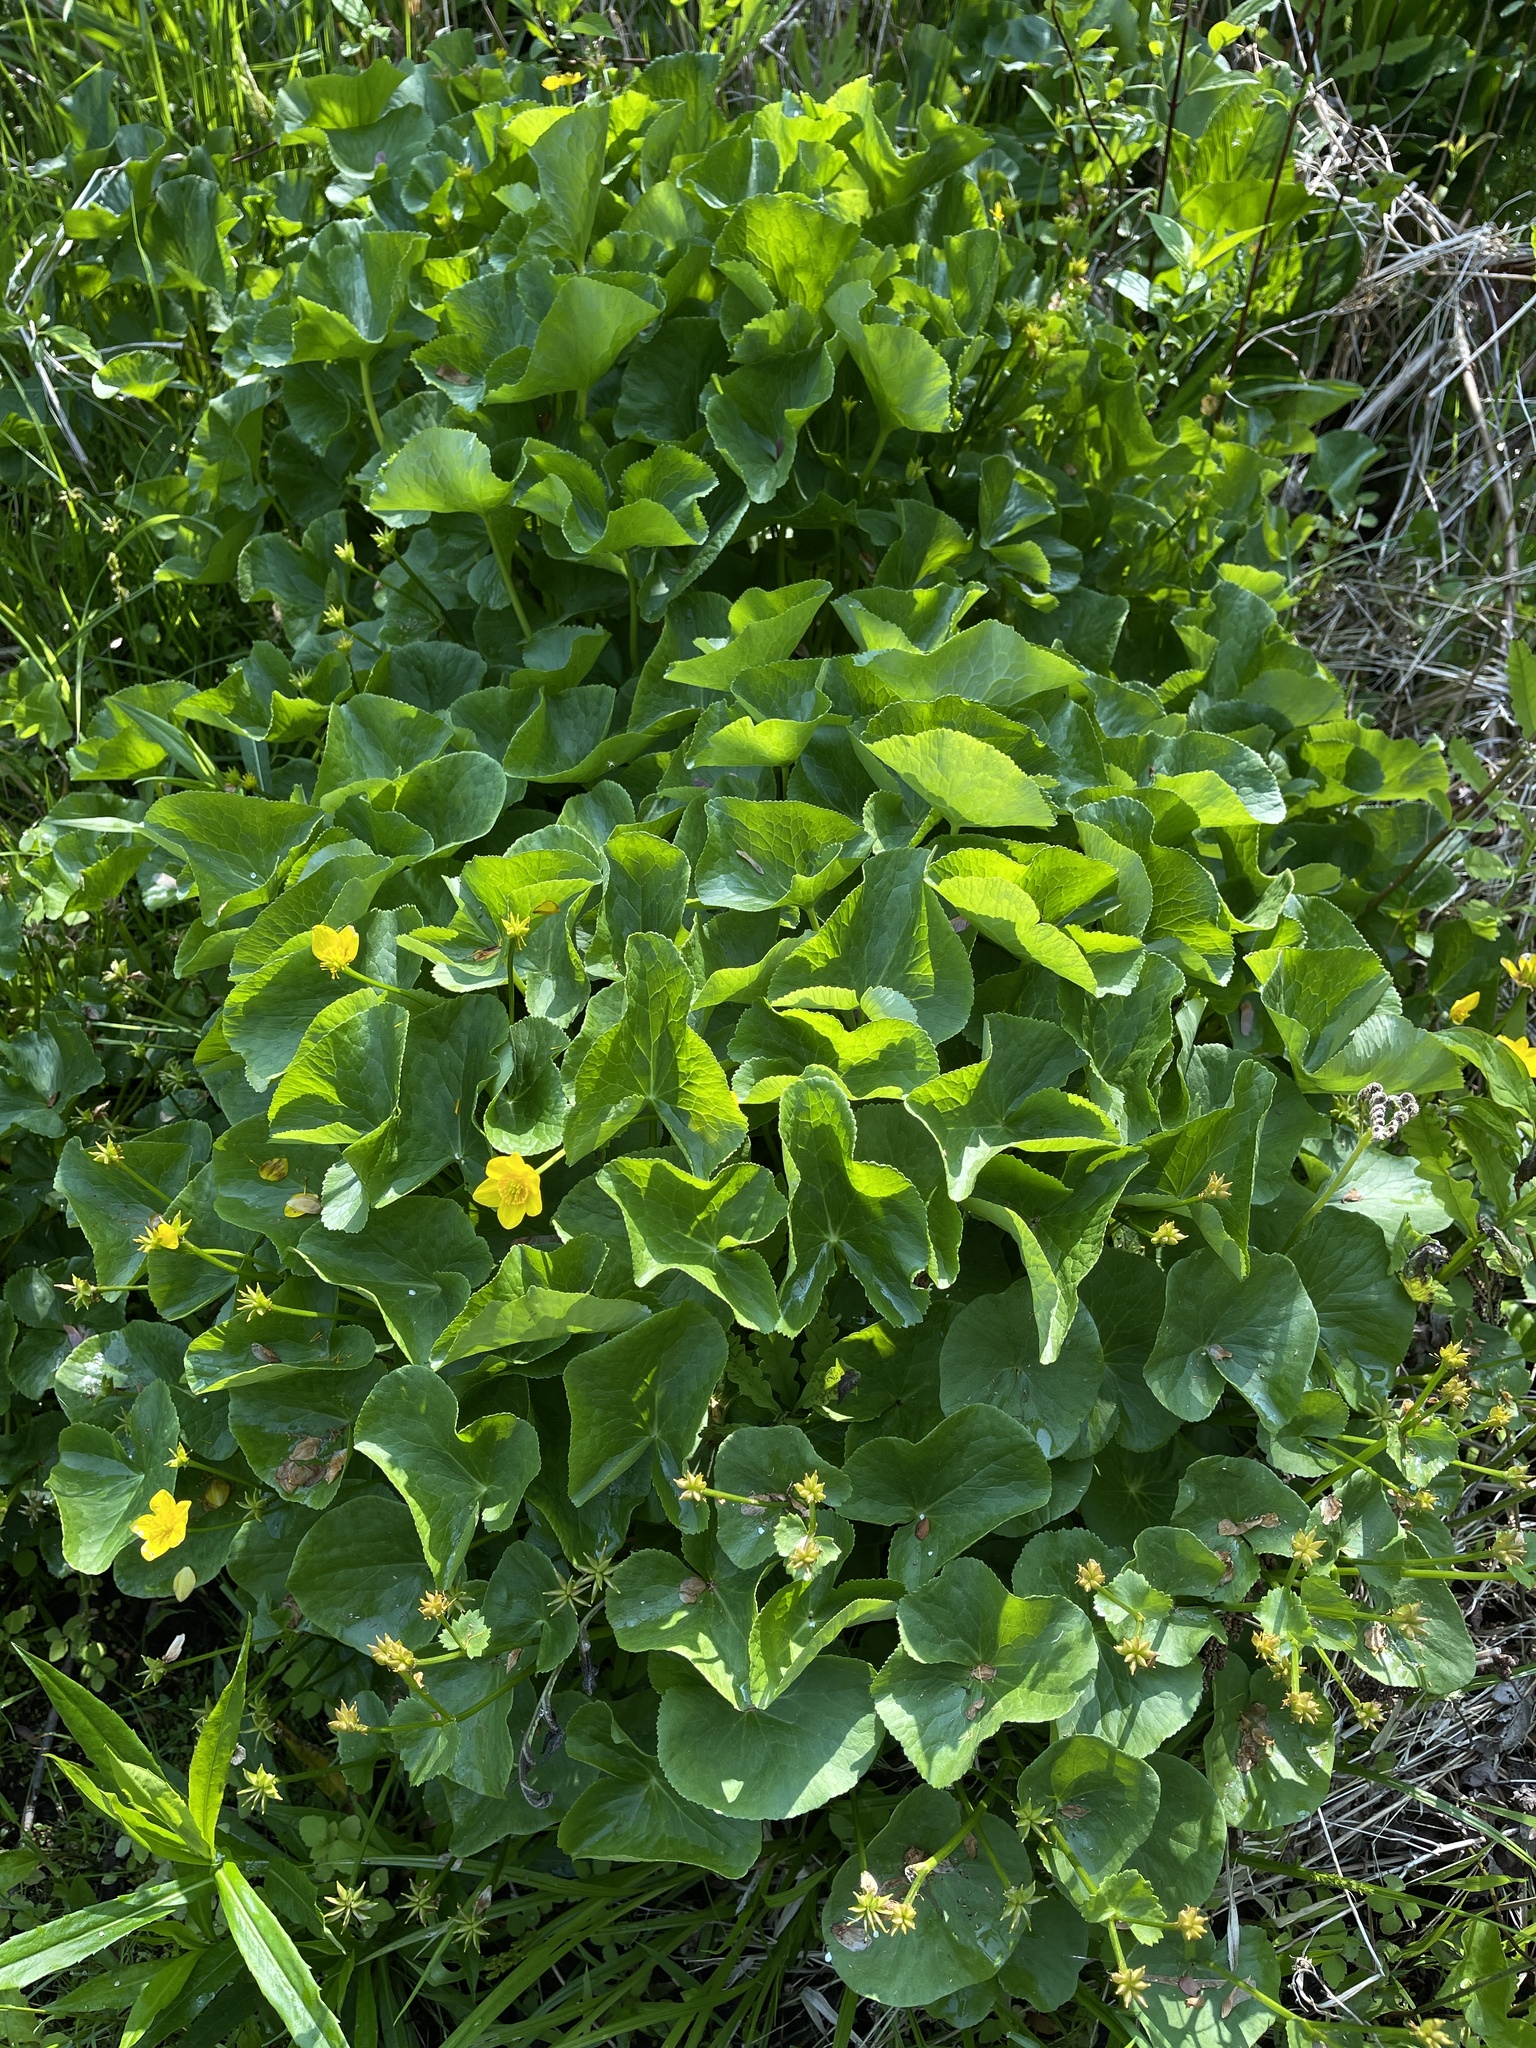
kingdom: Plantae
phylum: Tracheophyta
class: Magnoliopsida
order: Ranunculales
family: Ranunculaceae
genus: Caltha
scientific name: Caltha palustris
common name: Marsh marigold
